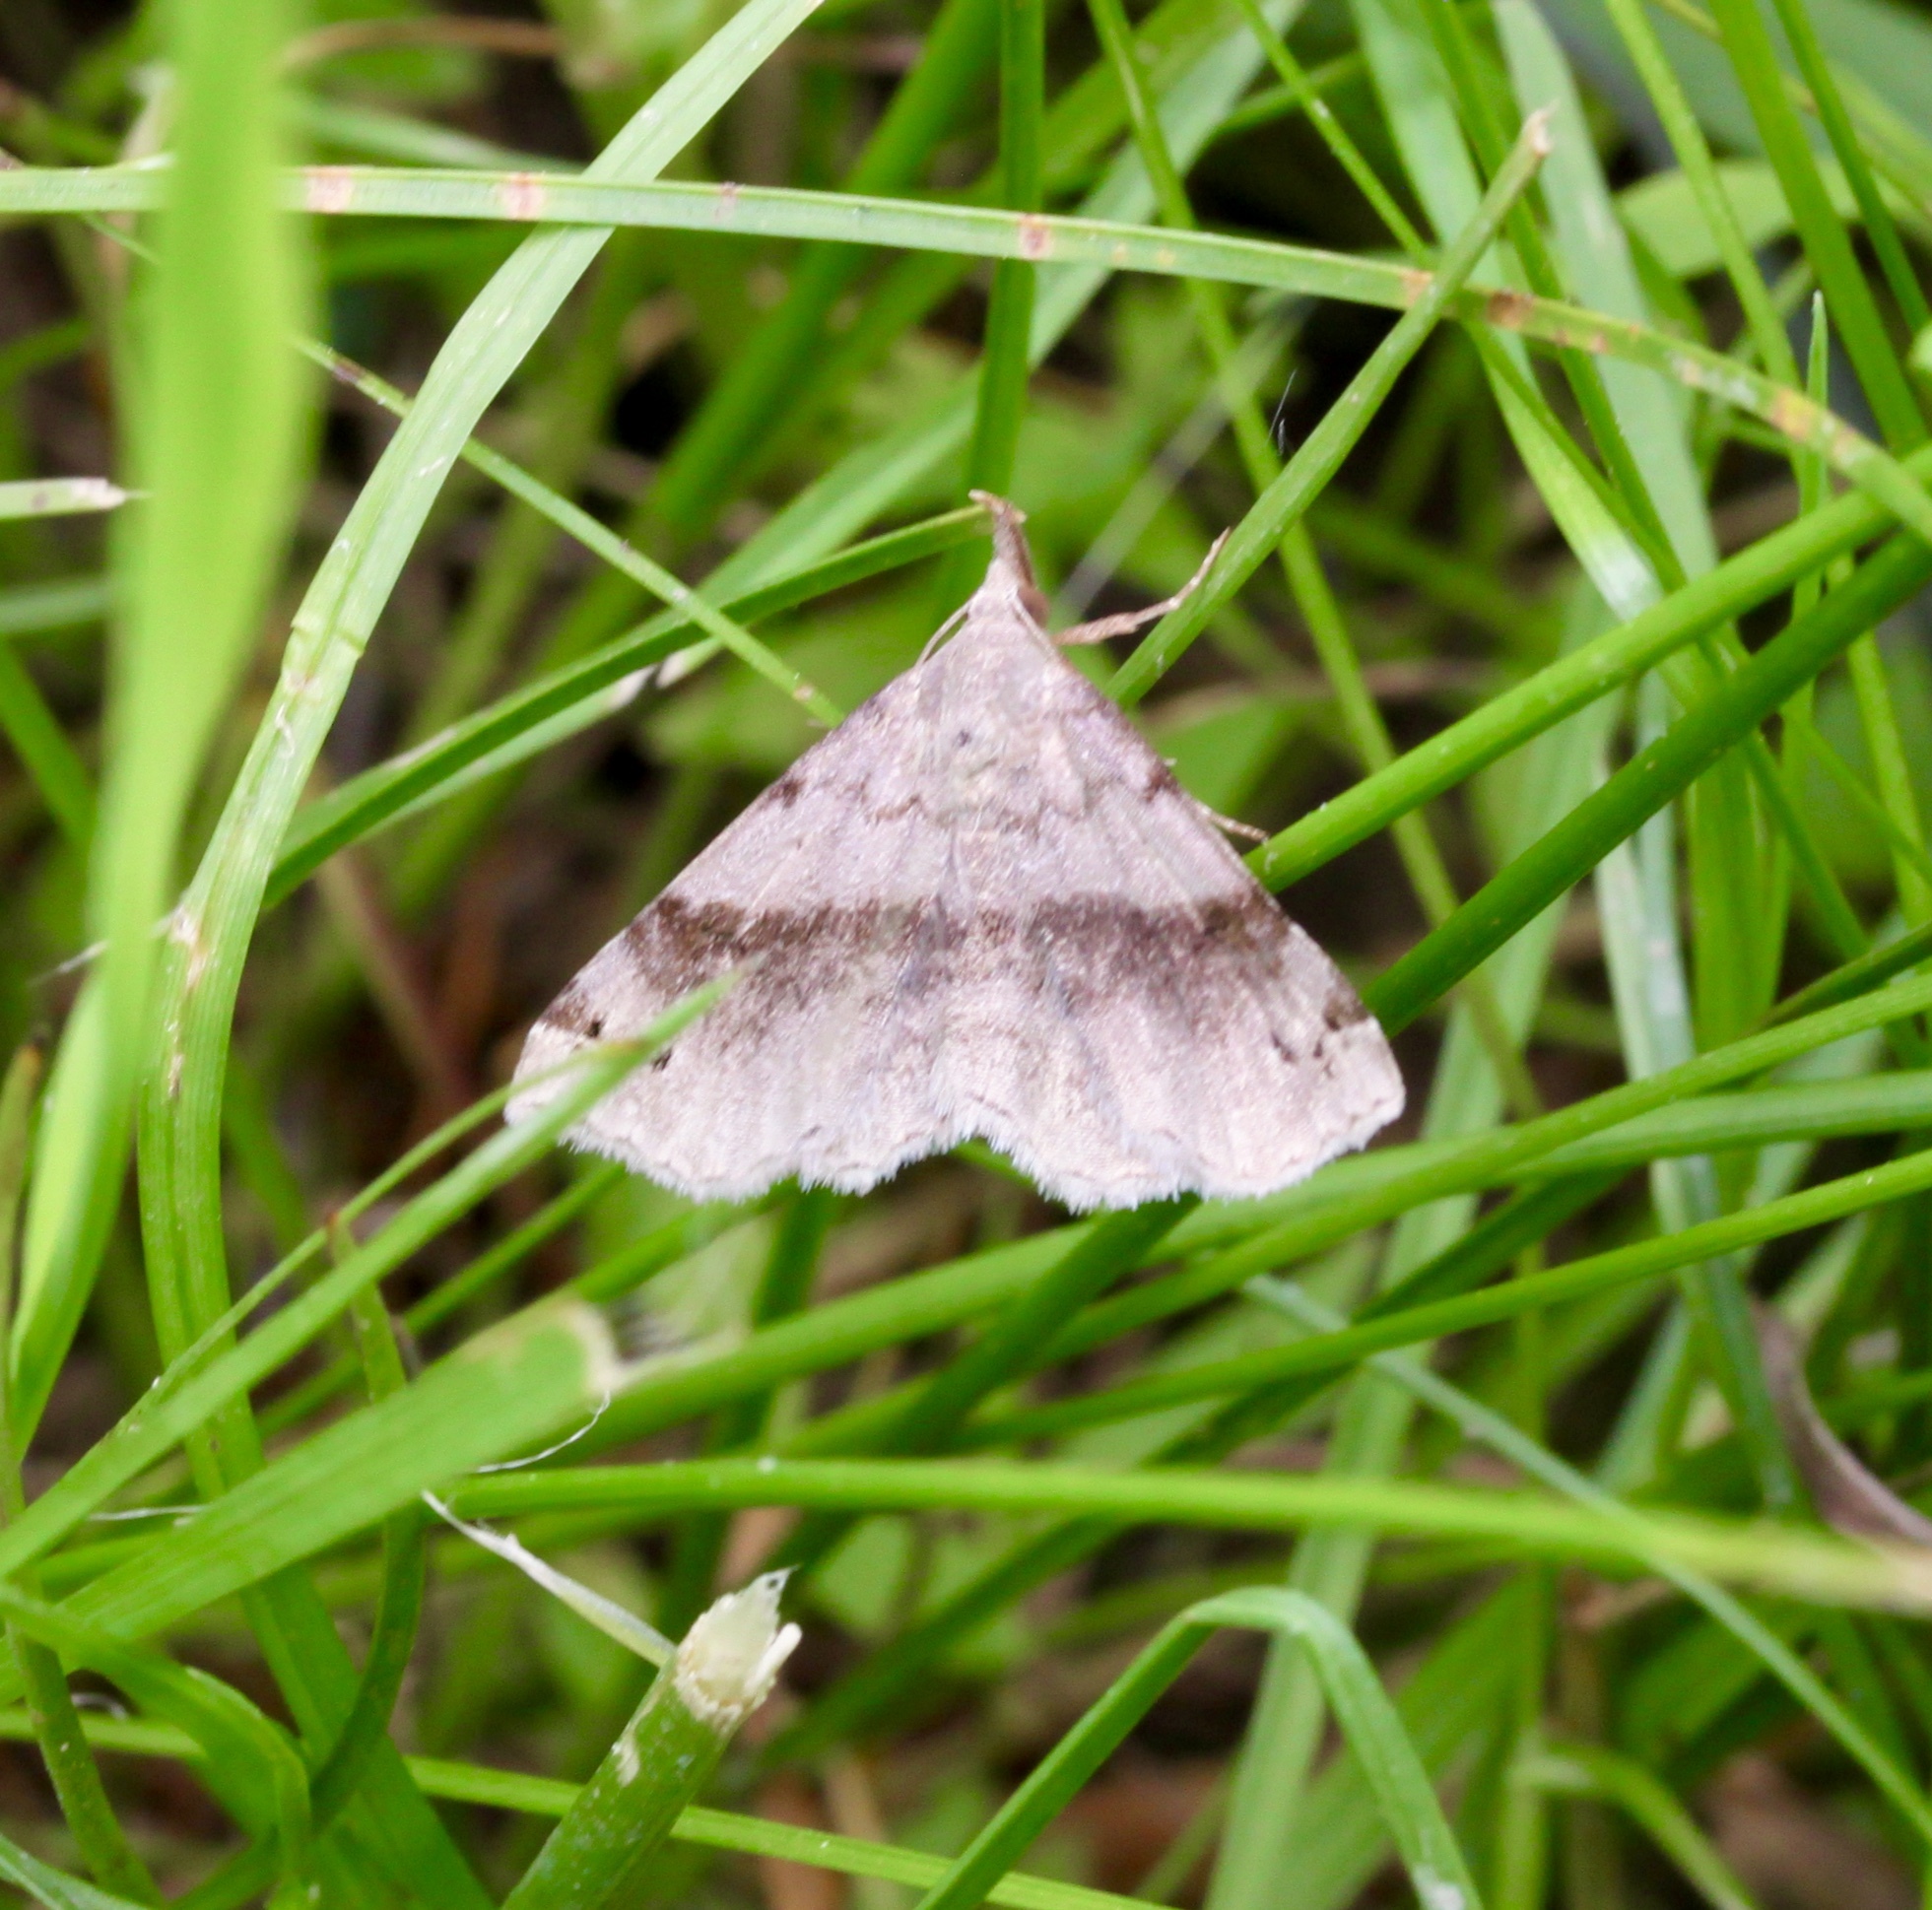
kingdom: Animalia
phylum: Arthropoda
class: Insecta
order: Lepidoptera
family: Erebidae
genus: Spargaloma
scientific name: Spargaloma sexpunctata
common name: Six-spotted gray
